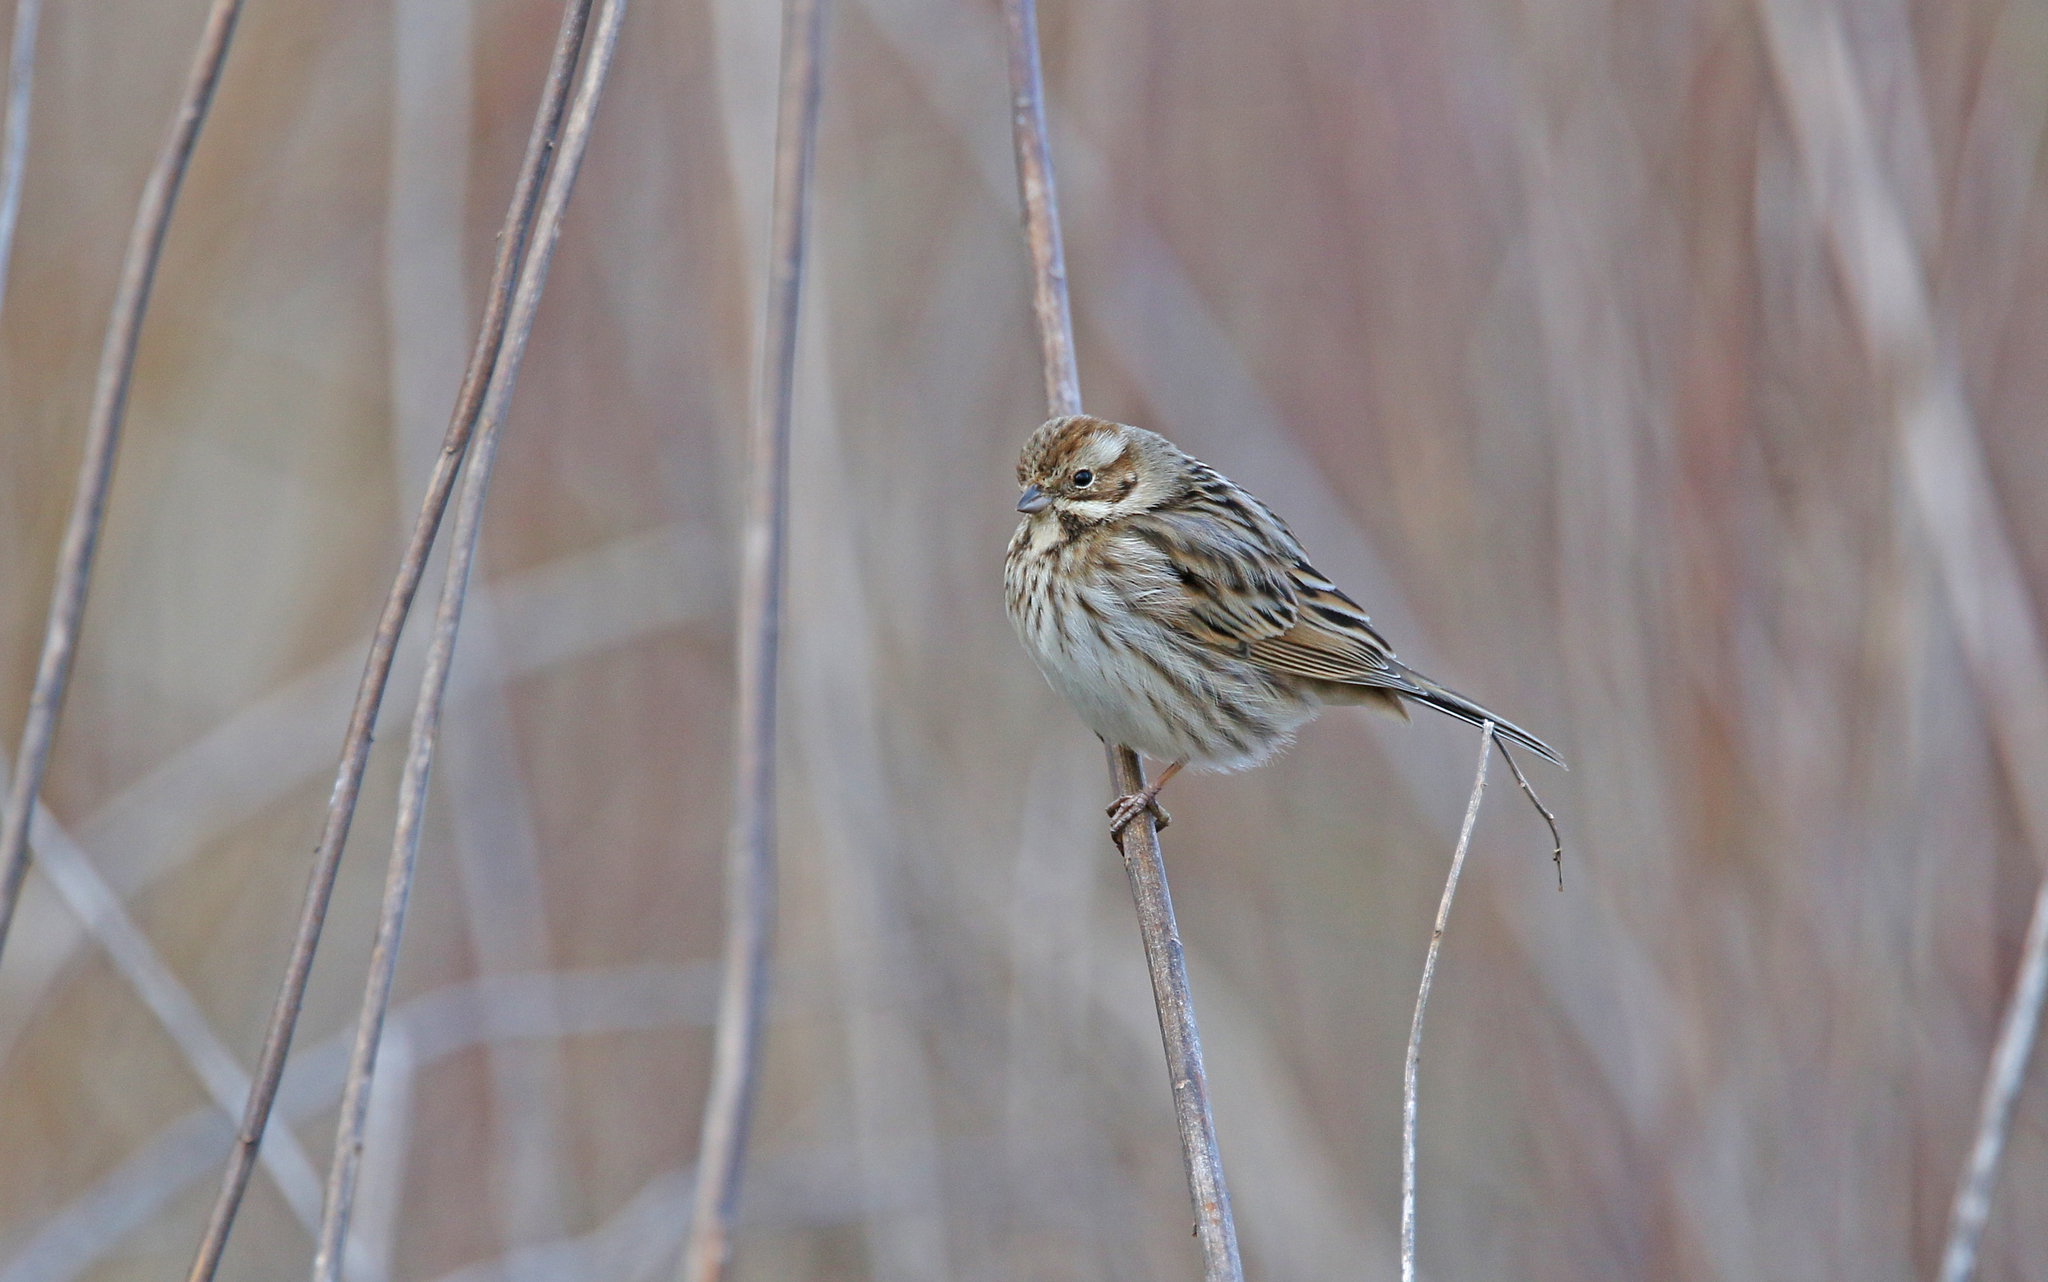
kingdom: Animalia
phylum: Chordata
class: Aves
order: Passeriformes
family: Emberizidae
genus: Emberiza
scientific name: Emberiza schoeniclus
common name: Reed bunting
